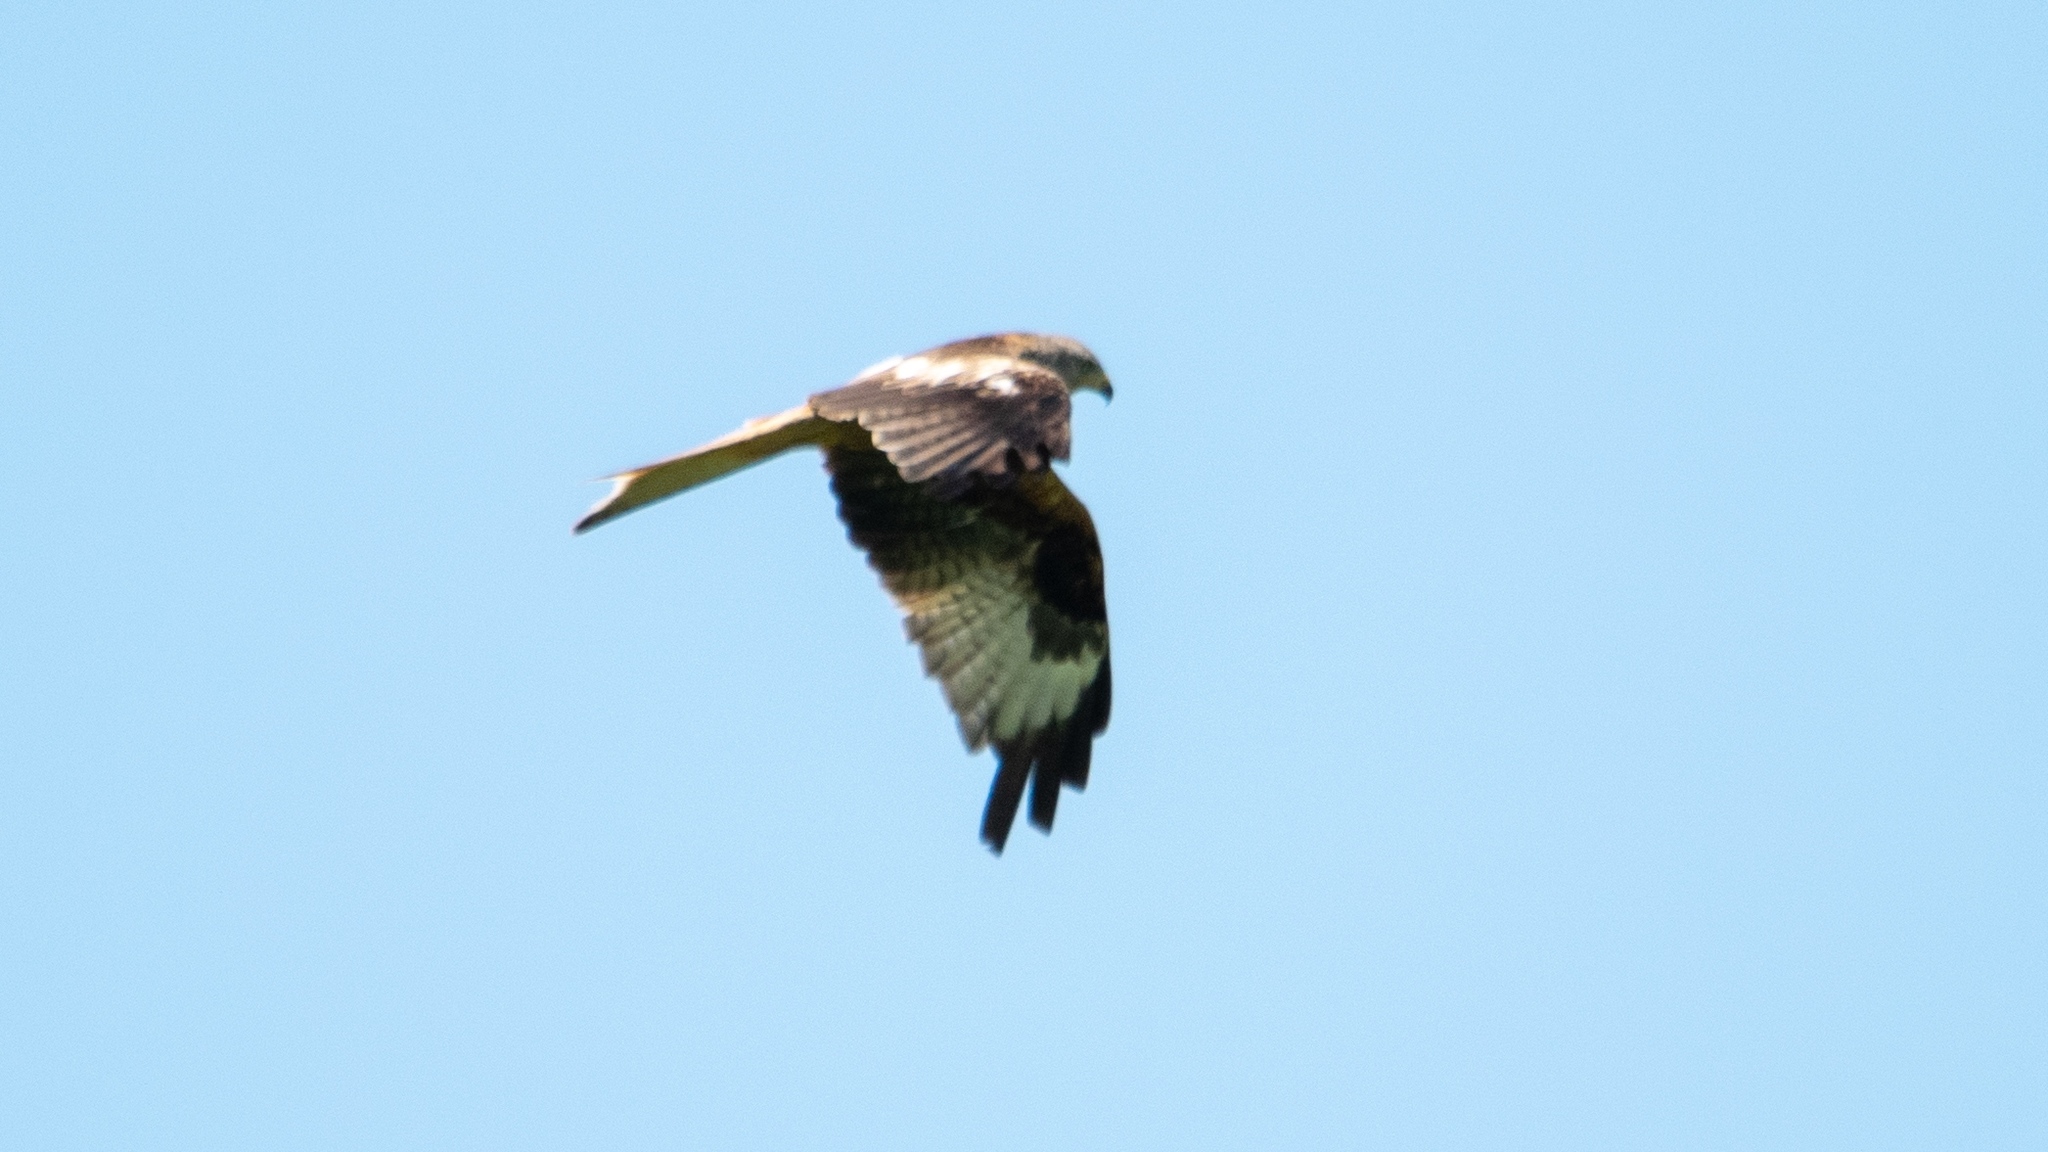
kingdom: Animalia
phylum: Chordata
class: Aves
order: Accipitriformes
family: Accipitridae
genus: Milvus
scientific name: Milvus milvus
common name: Red kite
